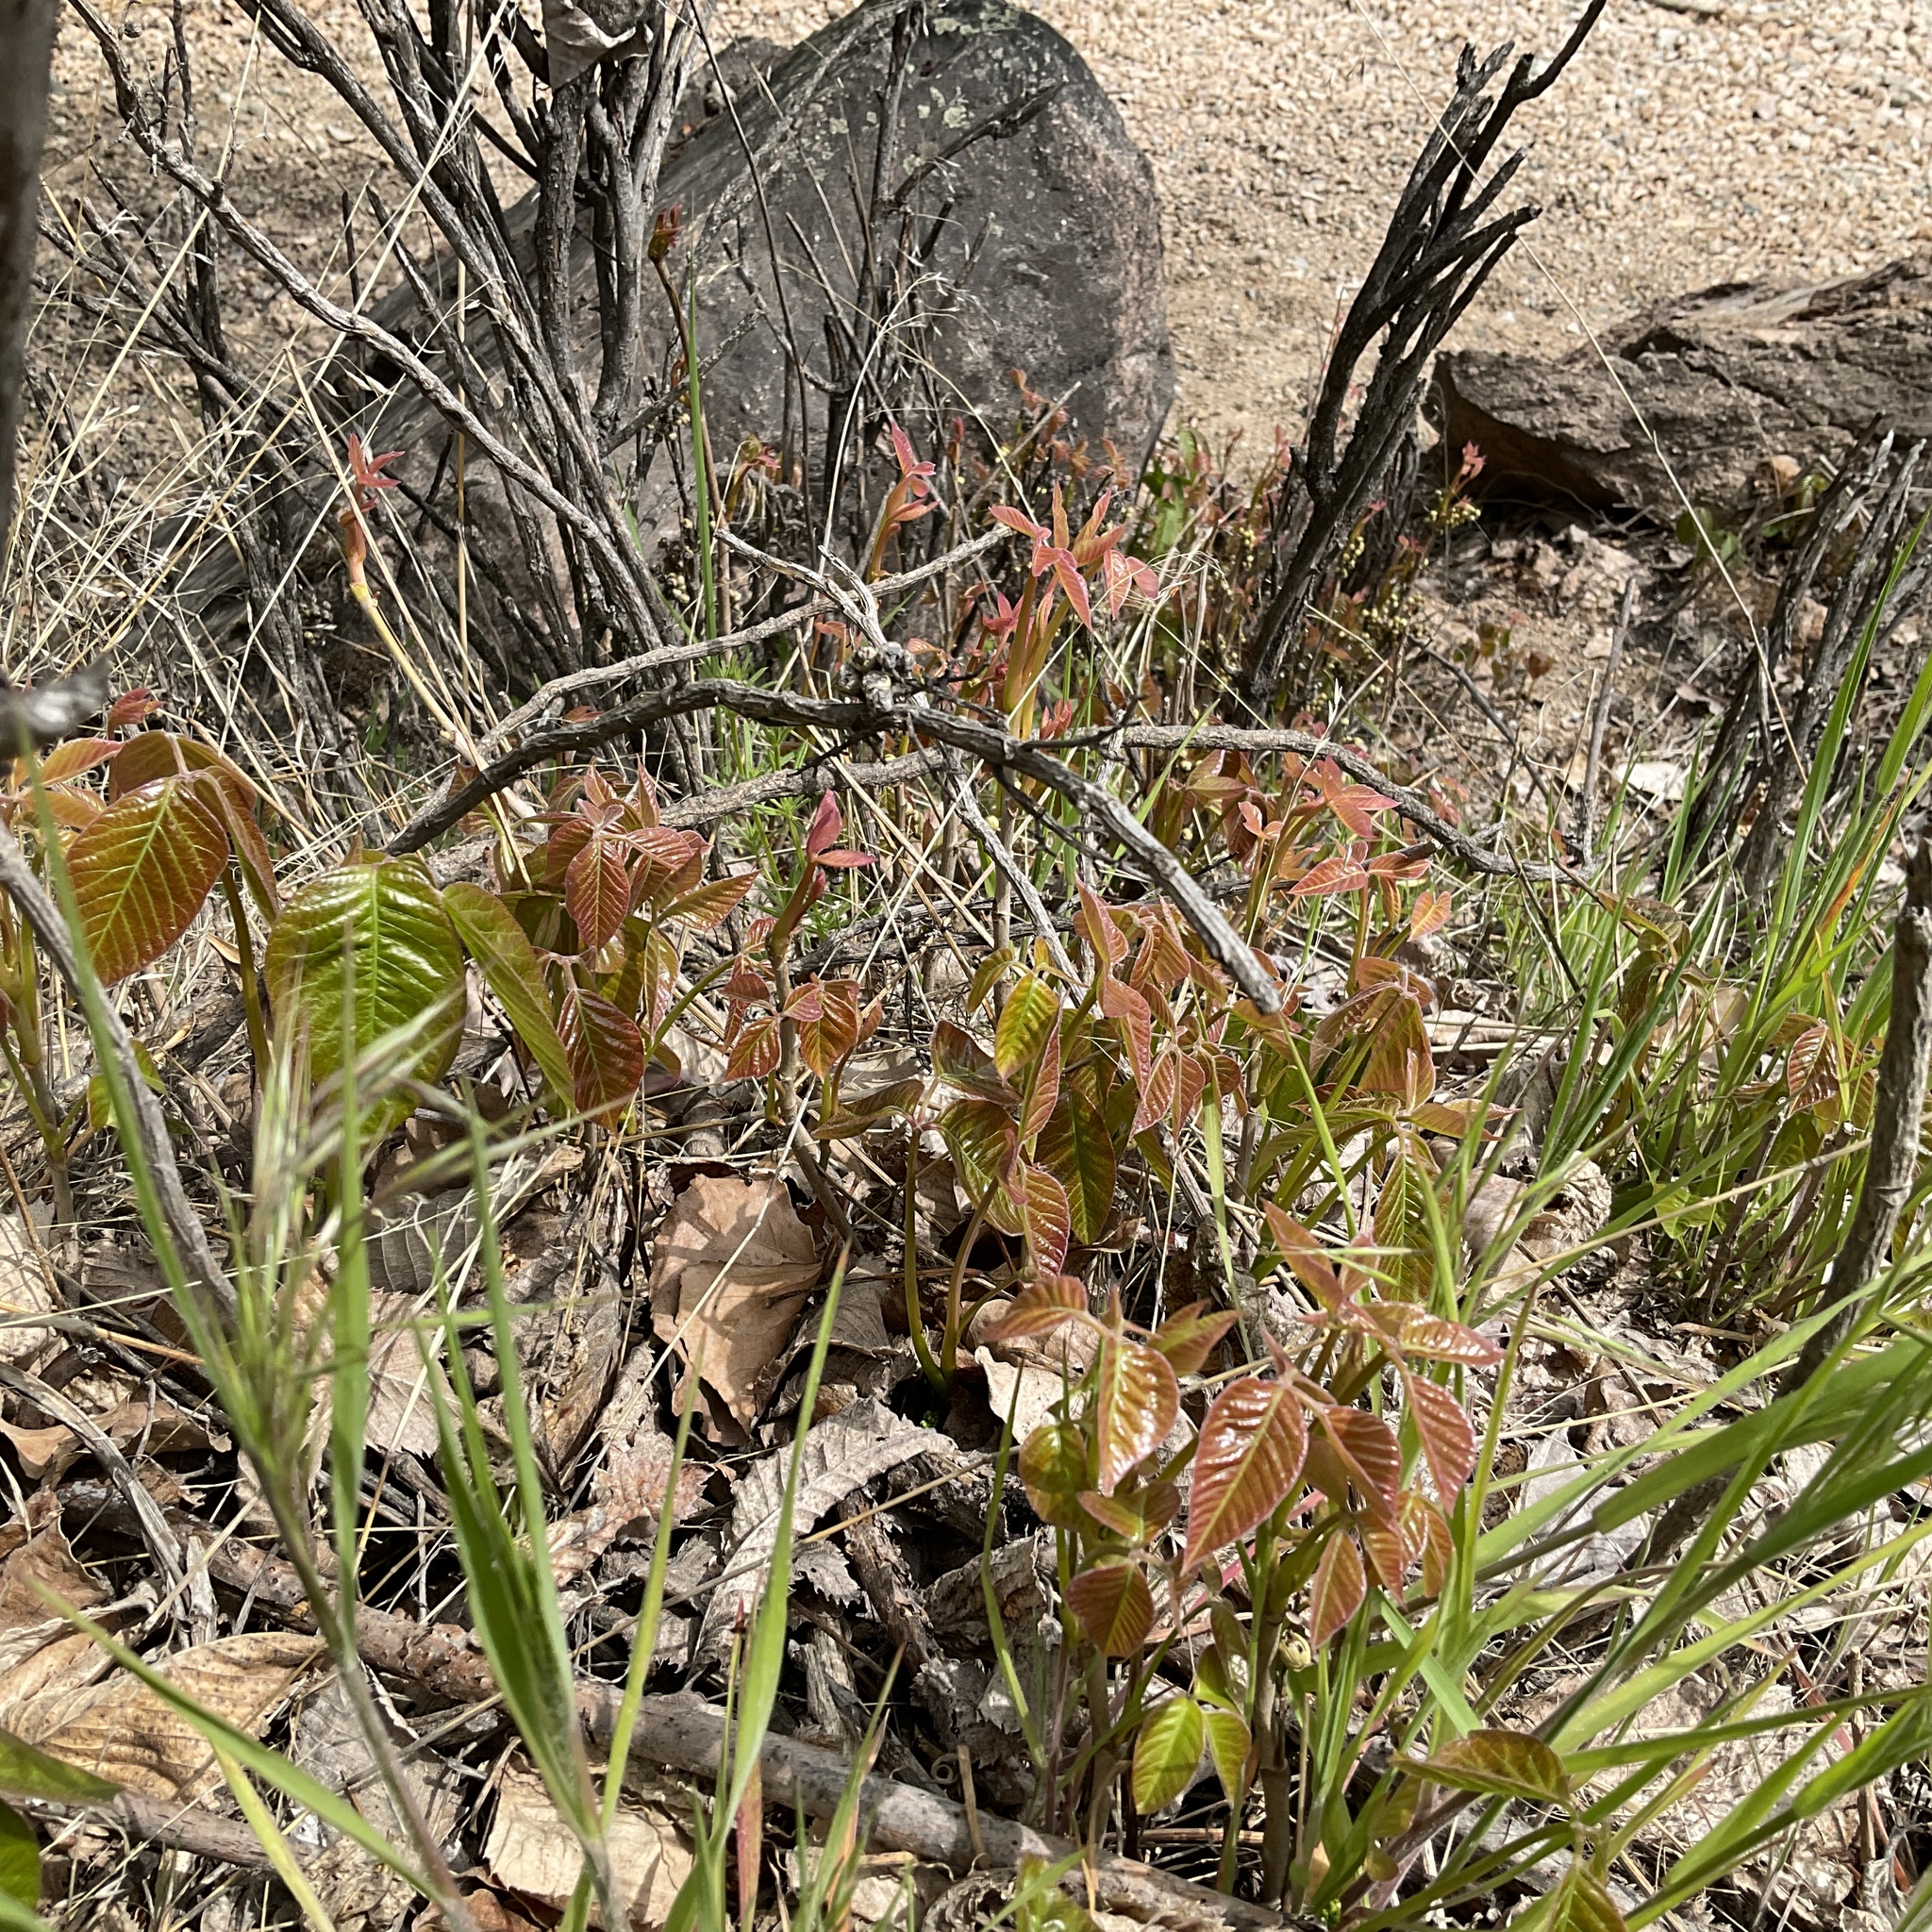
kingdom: Plantae
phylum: Tracheophyta
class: Magnoliopsida
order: Sapindales
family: Anacardiaceae
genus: Toxicodendron
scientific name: Toxicodendron rydbergii
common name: Rydberg's poison-ivy
